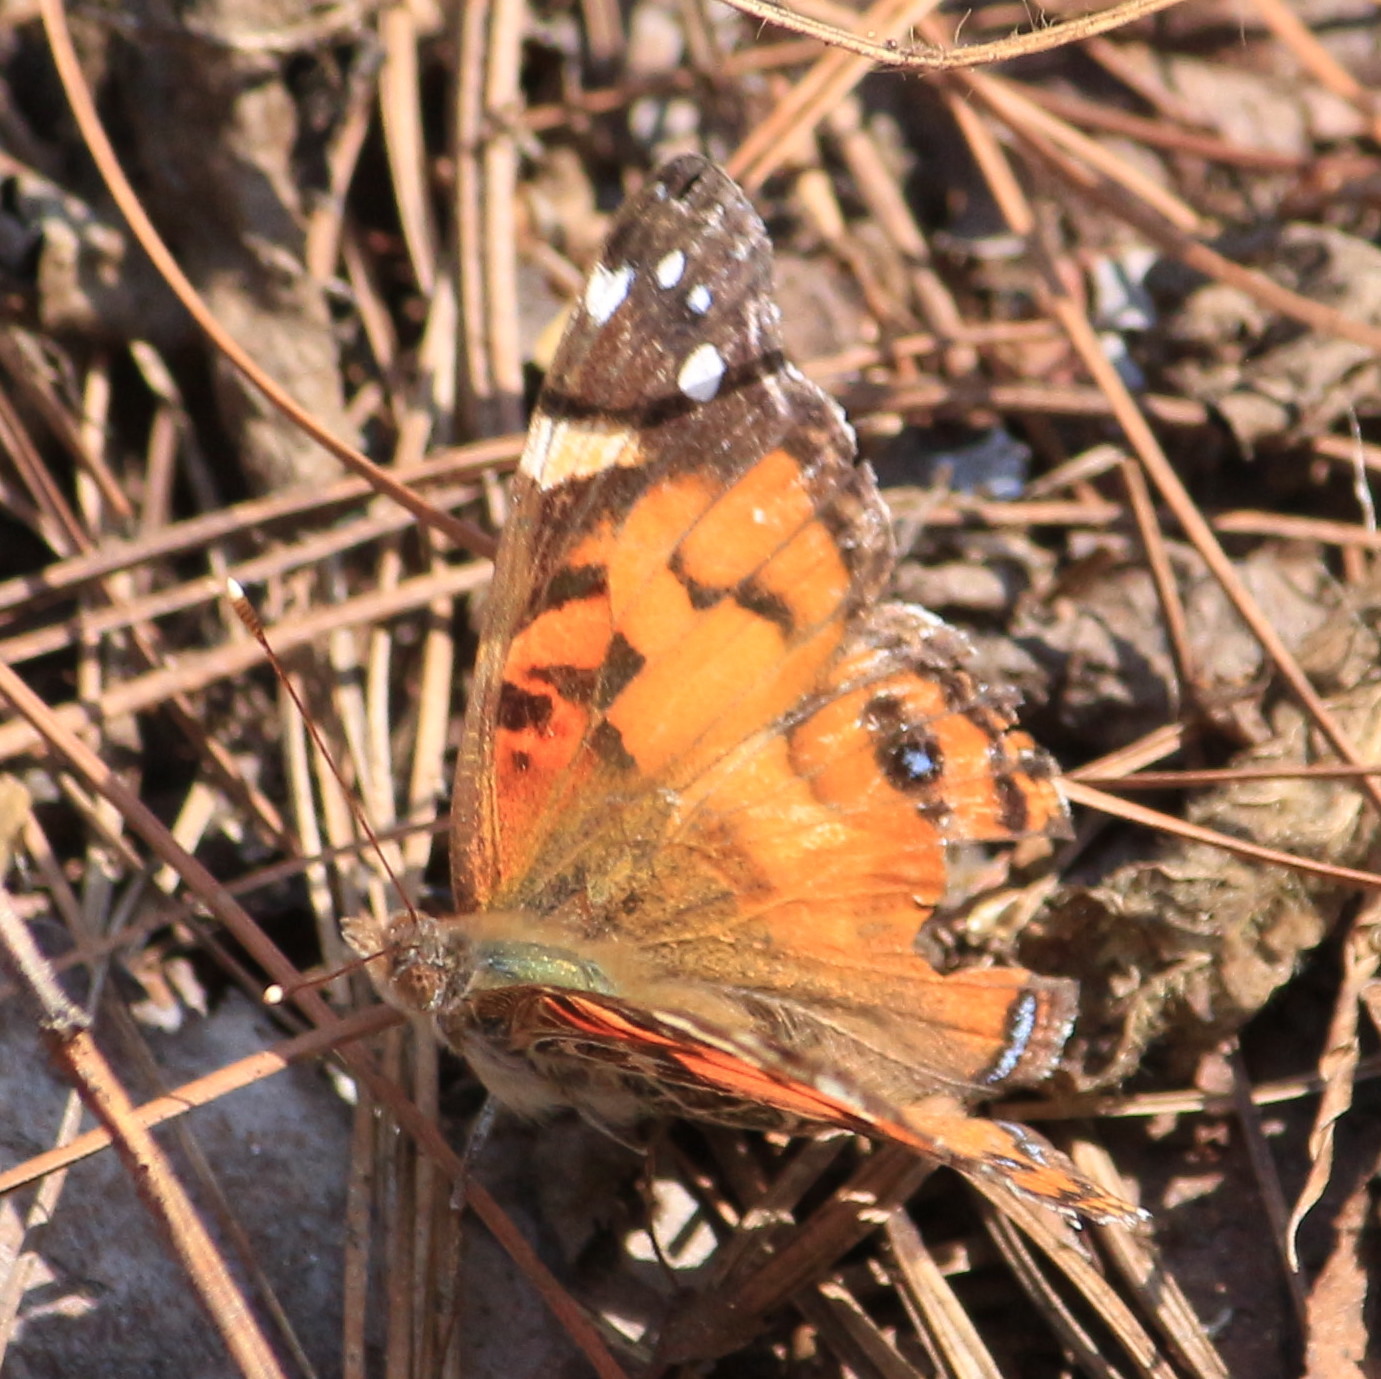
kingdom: Animalia
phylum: Arthropoda
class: Insecta
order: Lepidoptera
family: Nymphalidae
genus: Vanessa
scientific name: Vanessa virginiensis
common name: American lady
